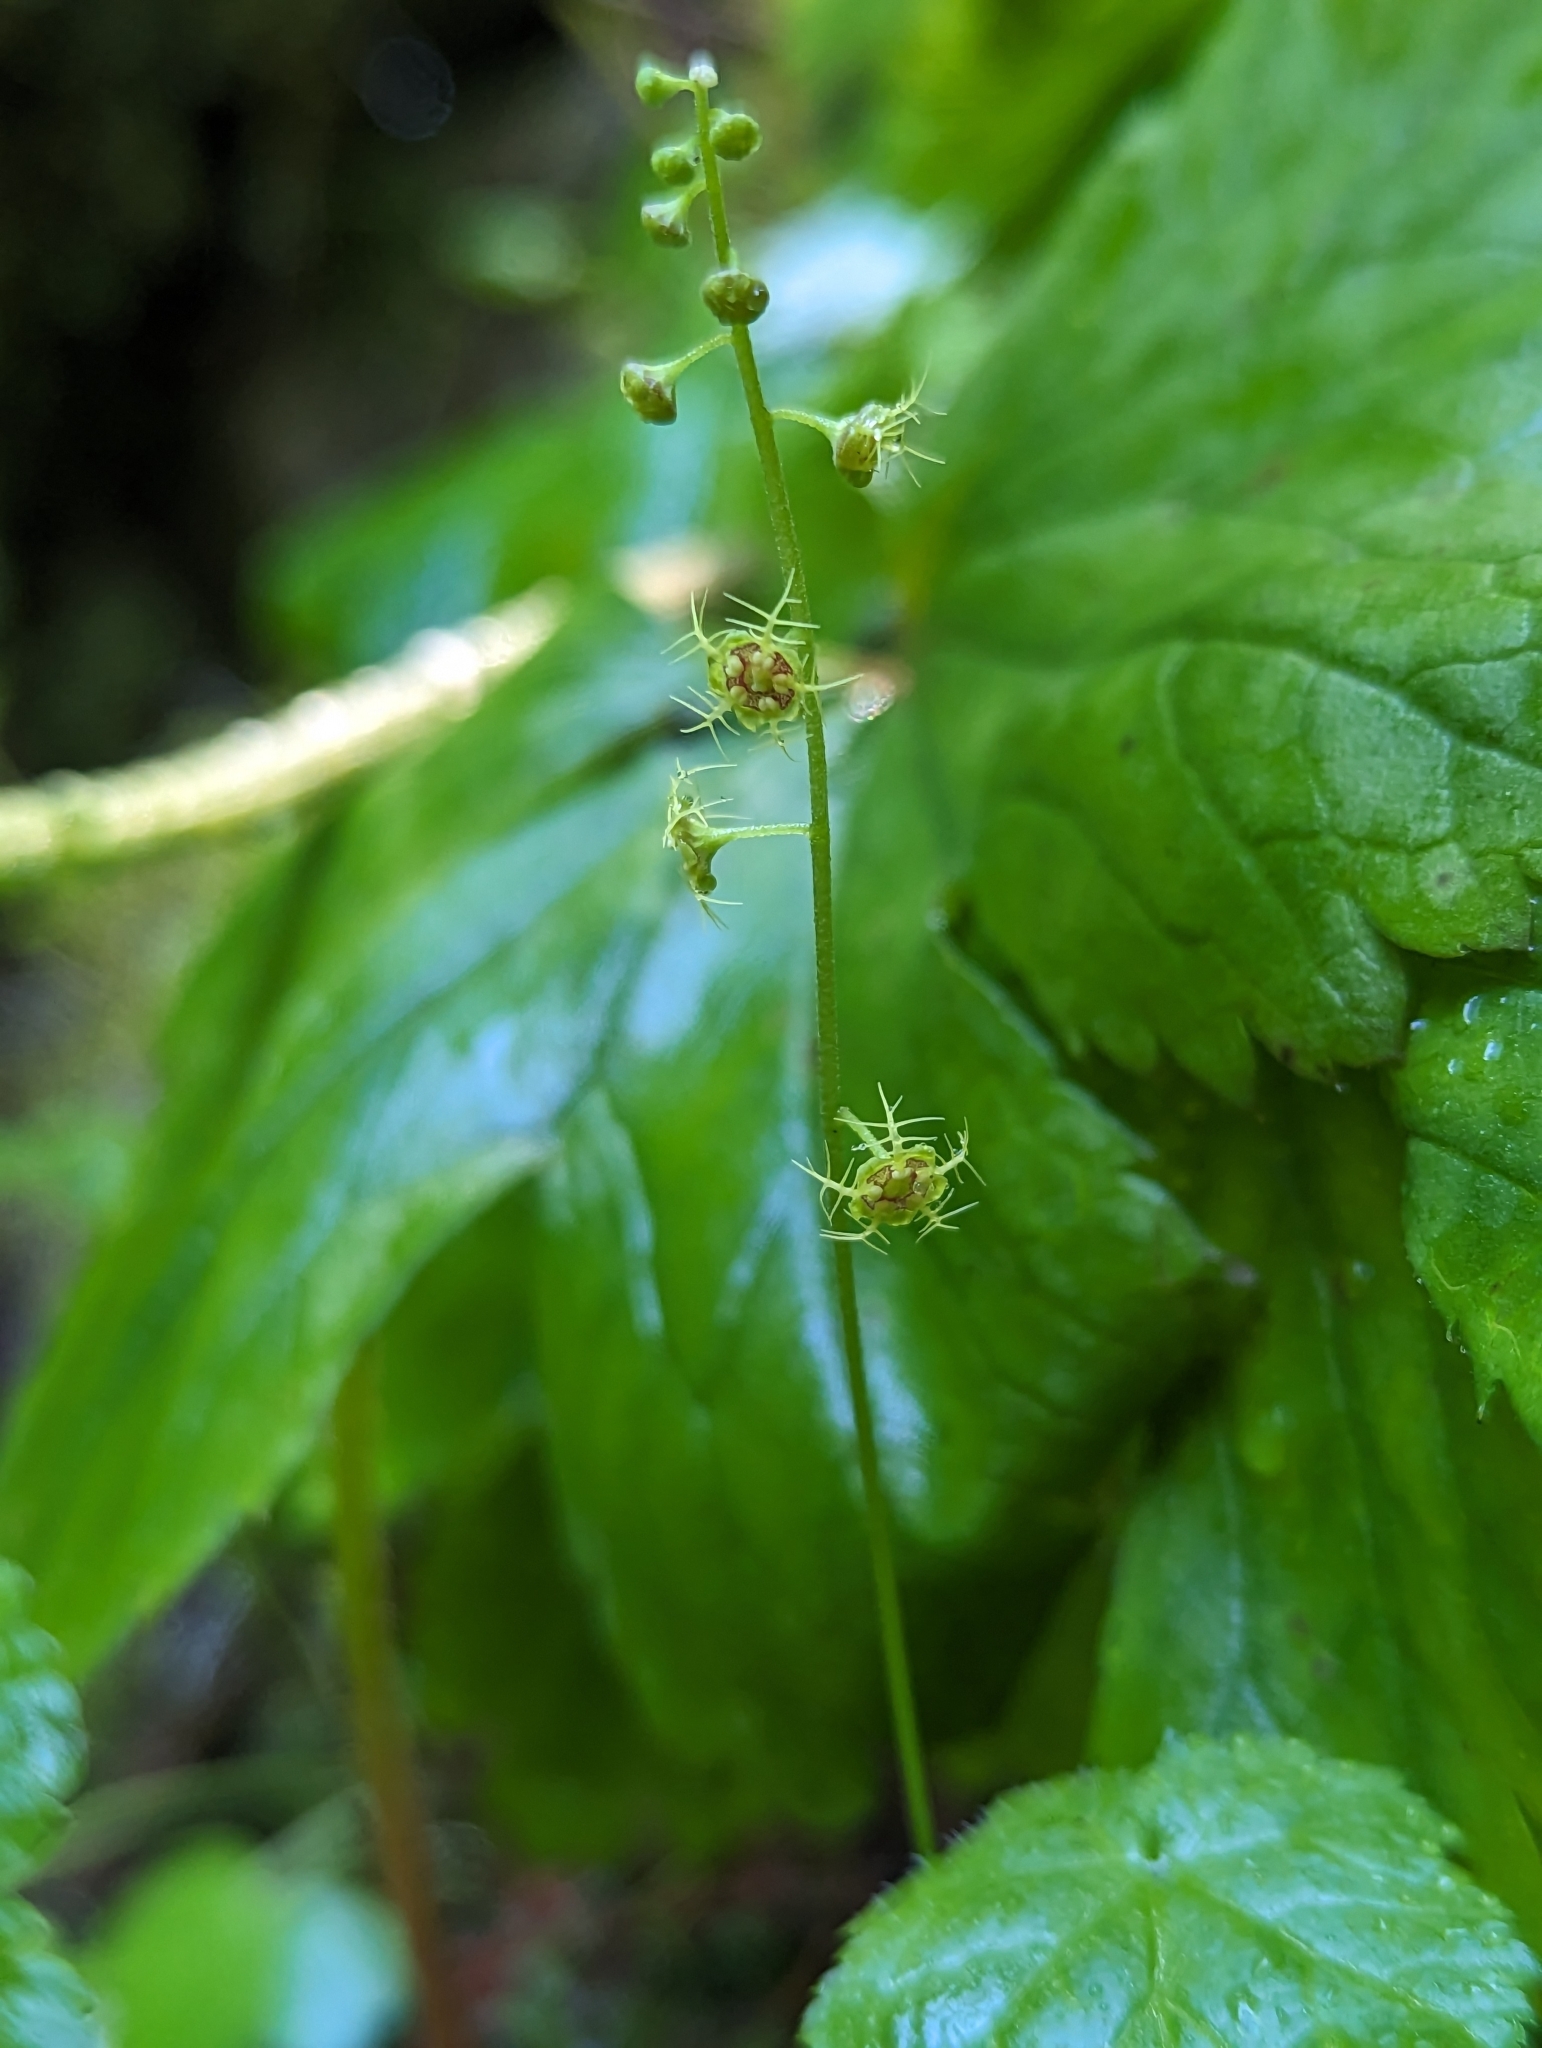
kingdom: Plantae
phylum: Tracheophyta
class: Magnoliopsida
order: Saxifragales
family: Saxifragaceae
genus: Pectiantia
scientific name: Pectiantia pentandra
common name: Alpine bishop's-cap
